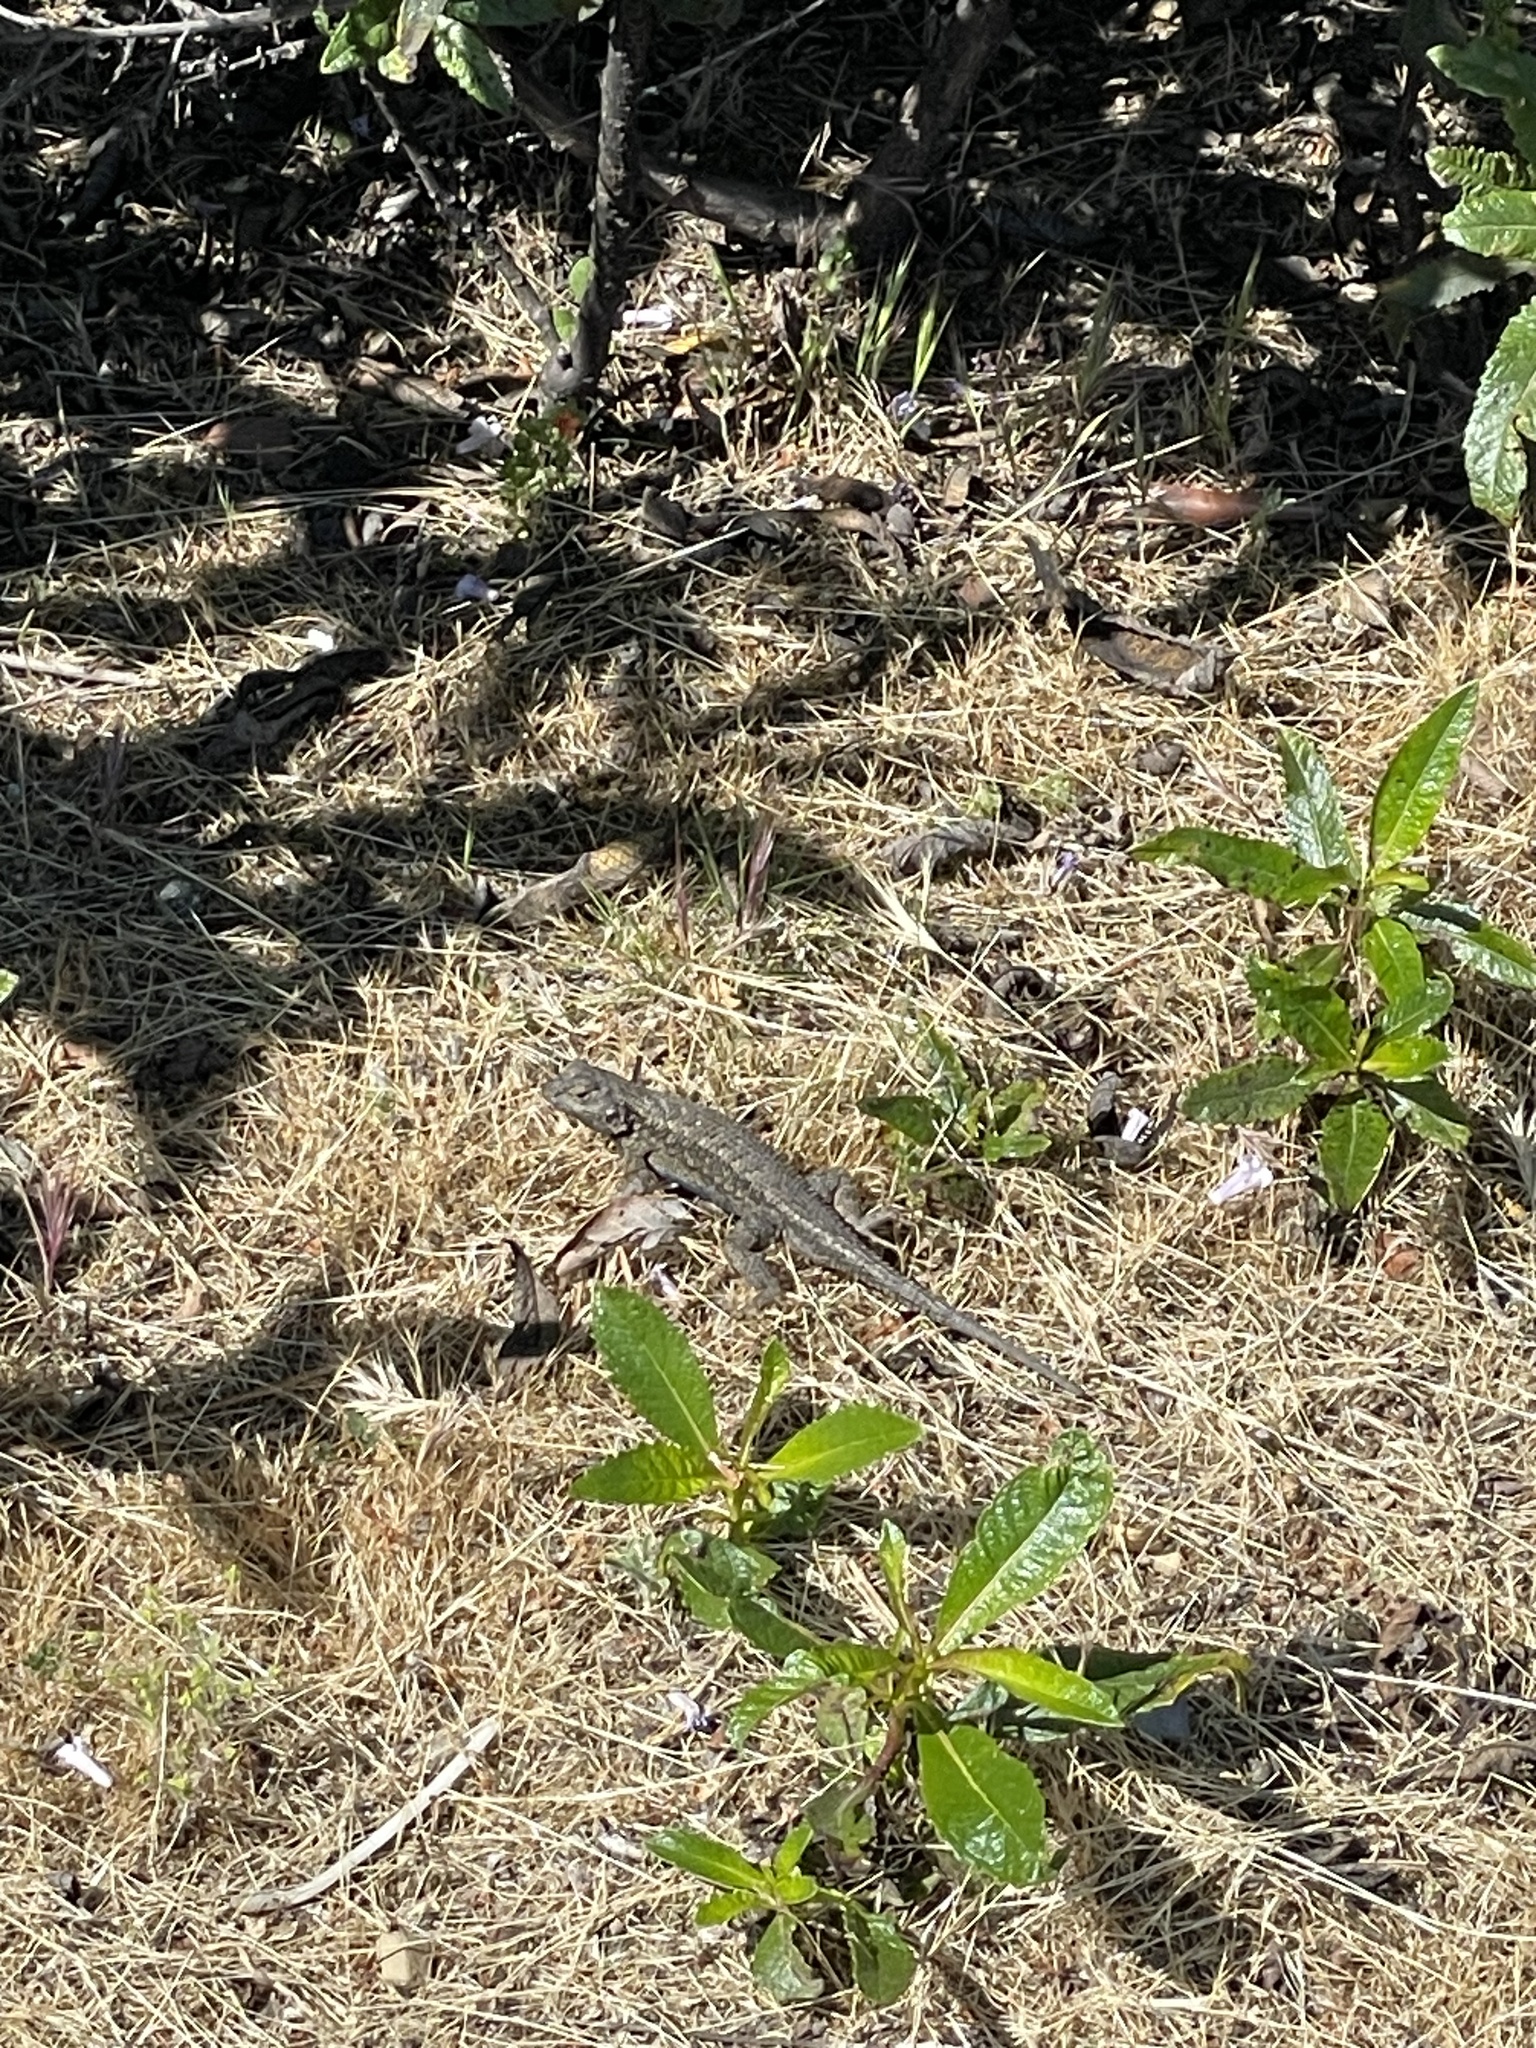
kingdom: Animalia
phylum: Chordata
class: Squamata
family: Phrynosomatidae
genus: Sceloporus
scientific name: Sceloporus occidentalis
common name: Western fence lizard
